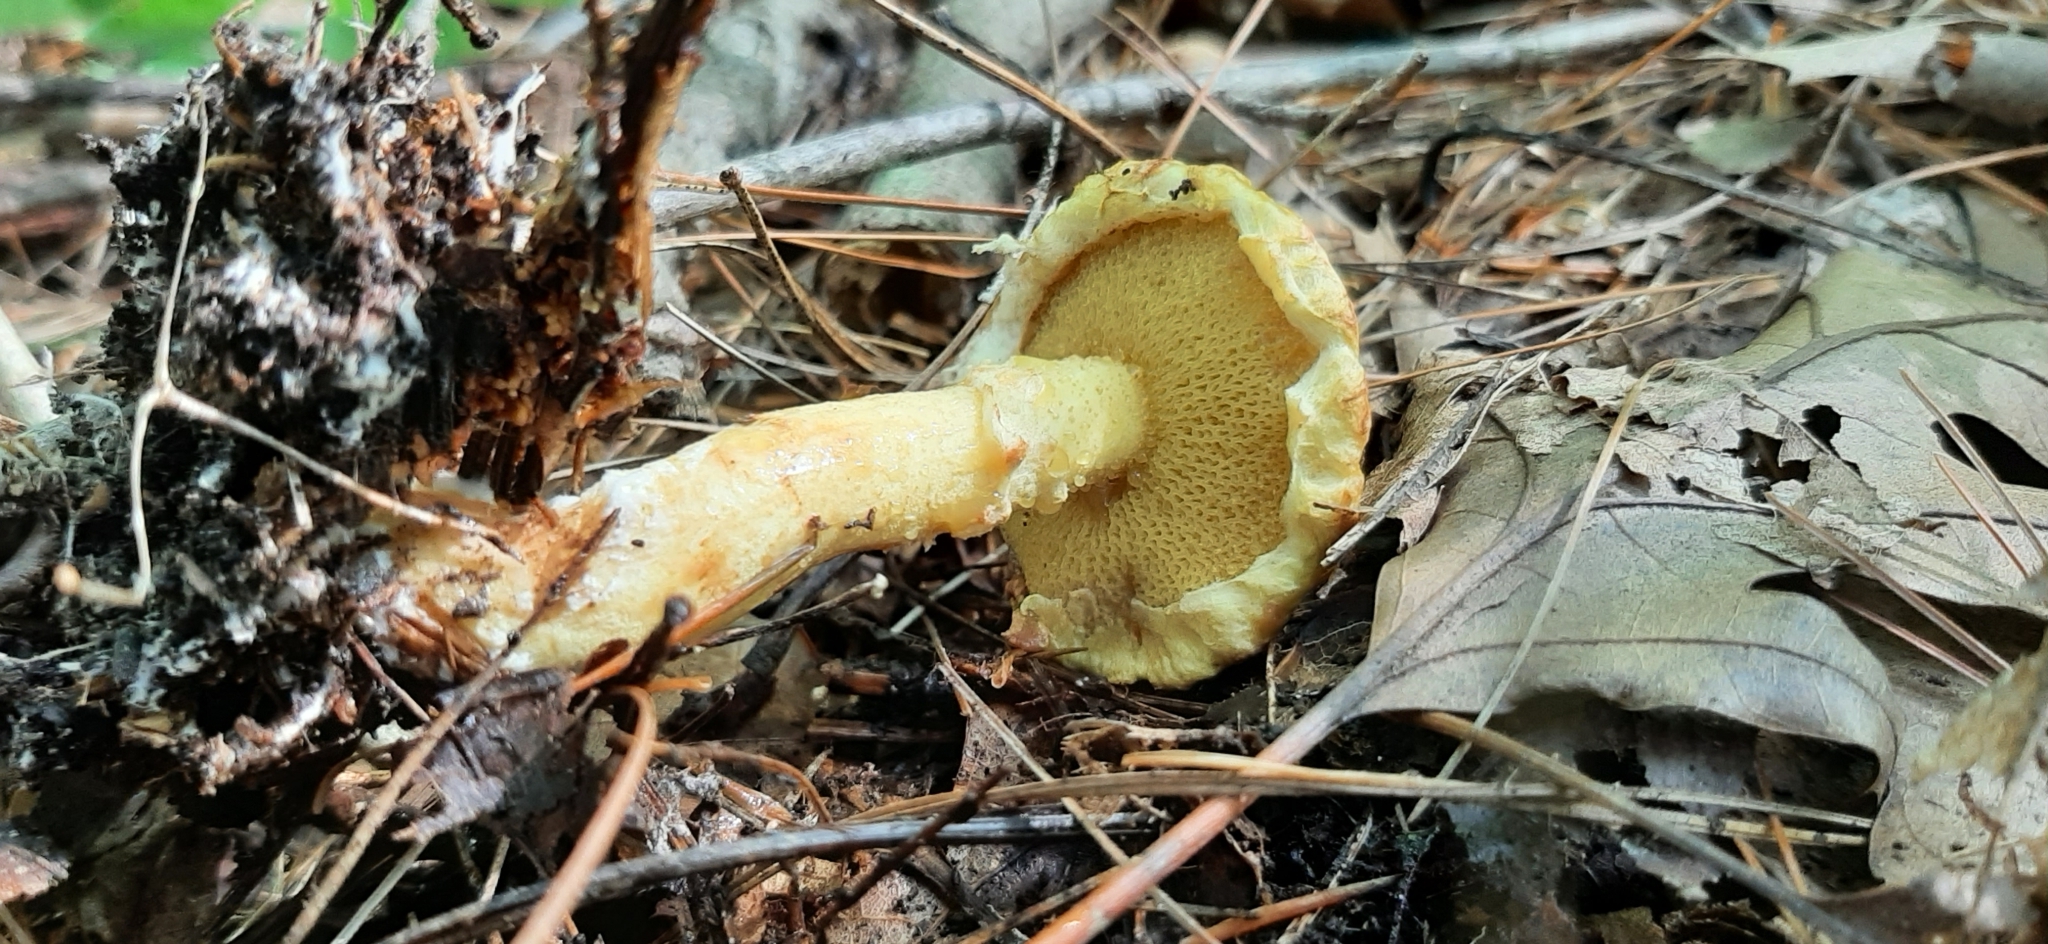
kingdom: Fungi
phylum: Basidiomycota
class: Agaricomycetes
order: Boletales
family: Suillaceae
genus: Suillus
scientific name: Suillus americanus
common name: Chicken fat mushroom
